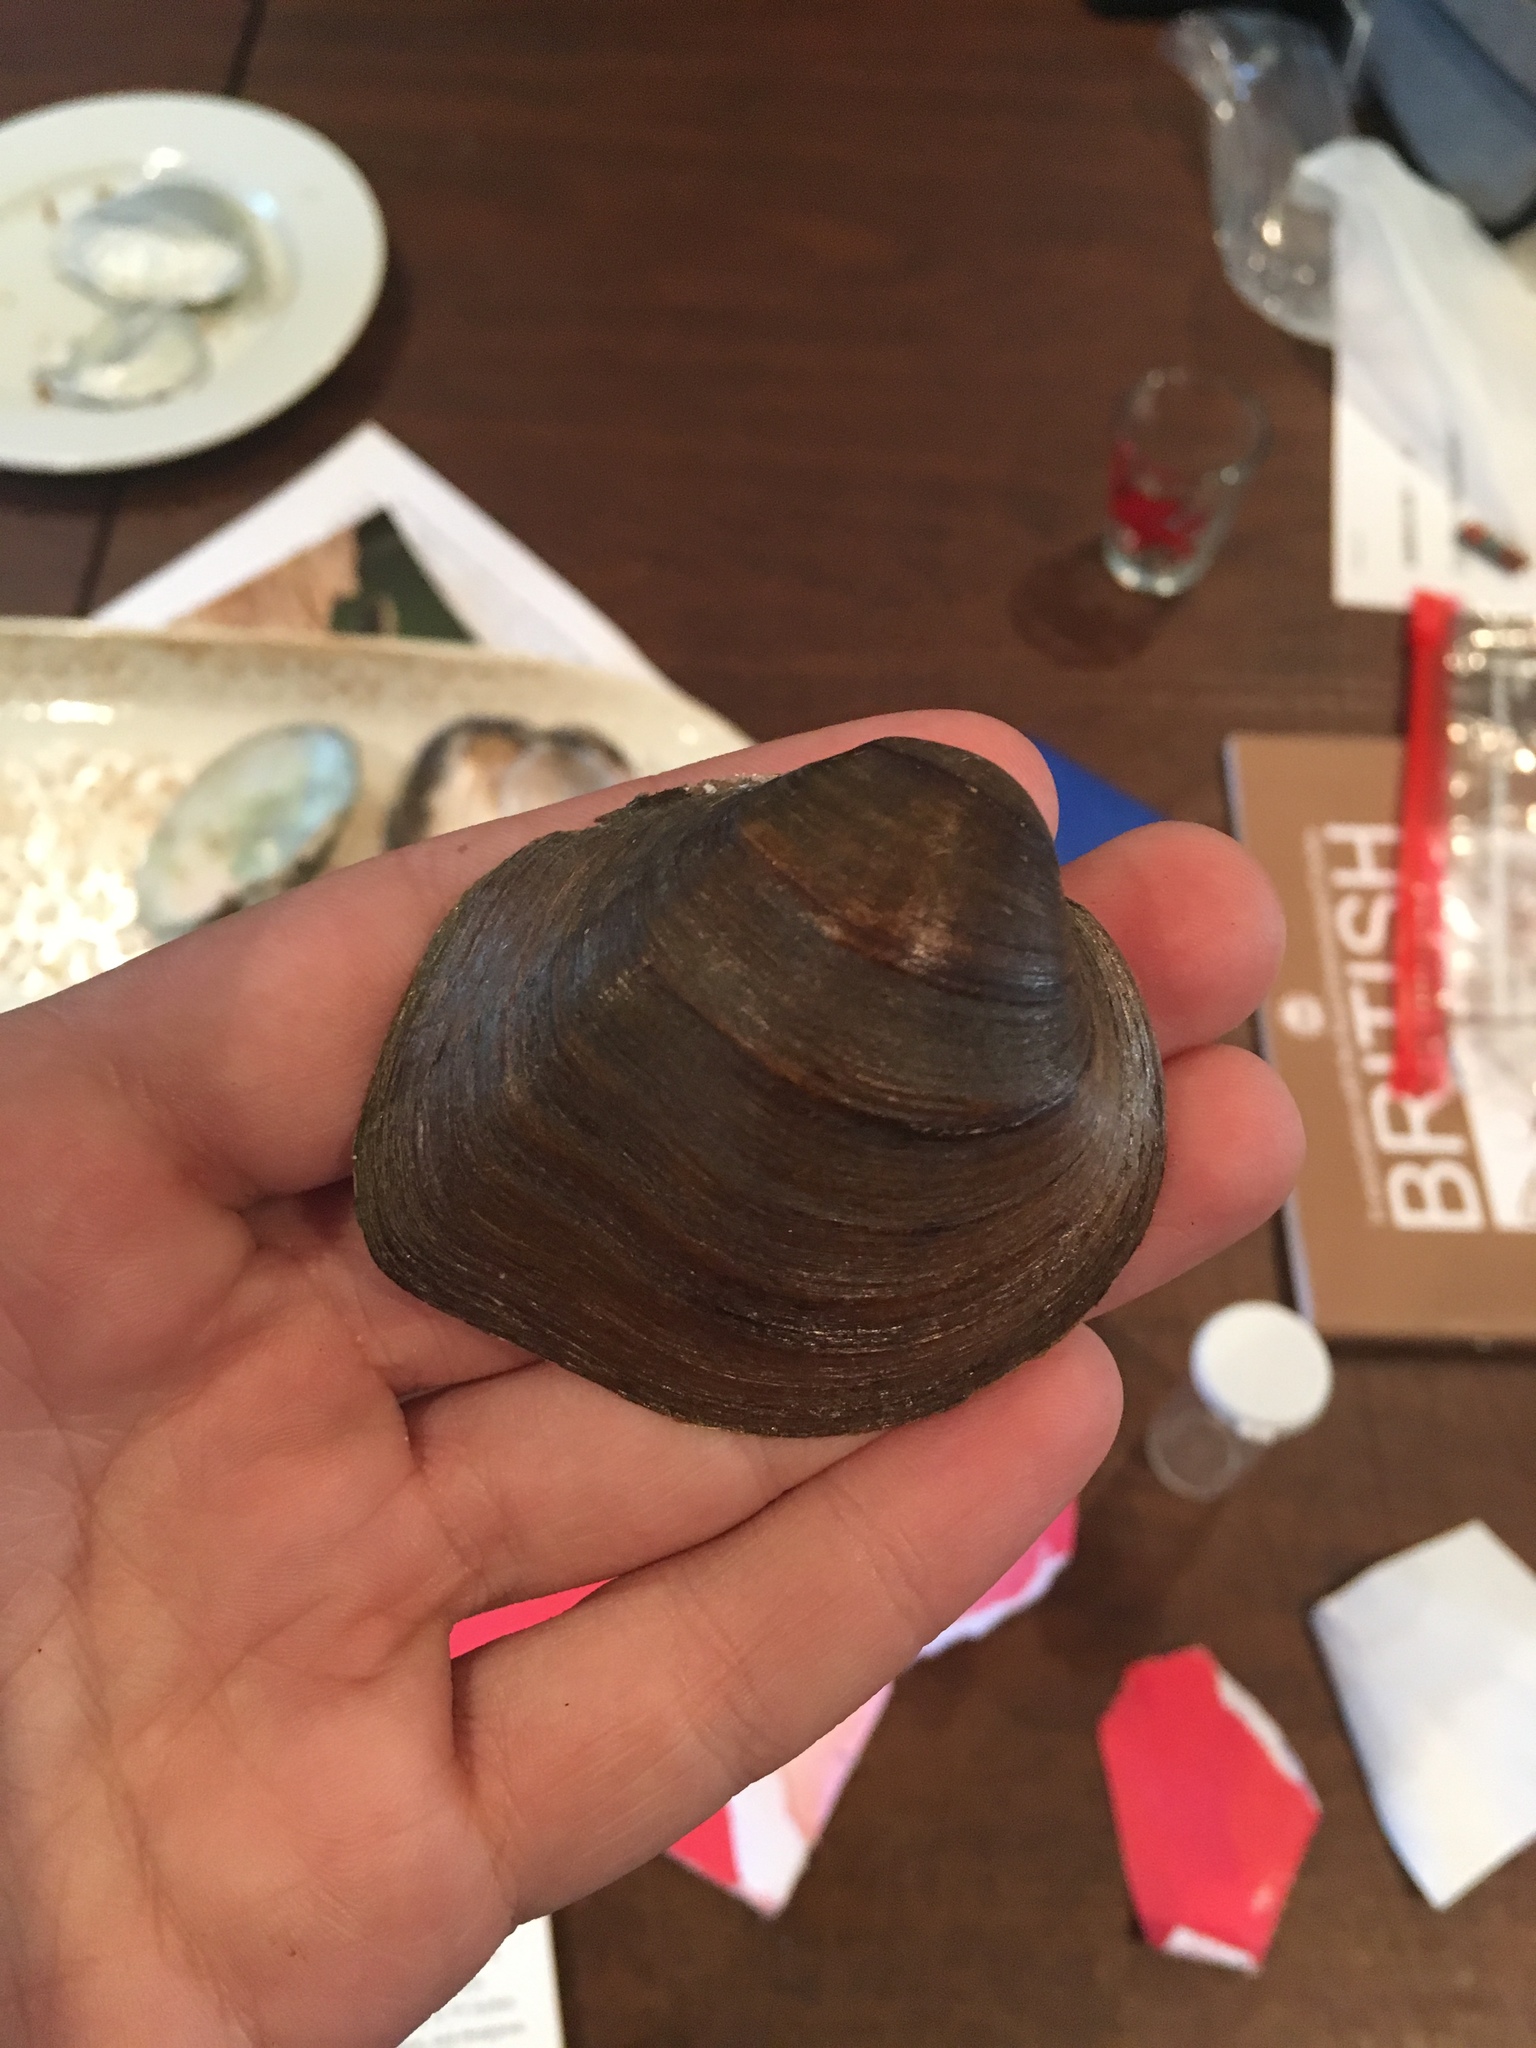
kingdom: Animalia
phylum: Mollusca
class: Bivalvia
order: Unionida
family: Unionidae
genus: Fusconaia
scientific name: Fusconaia flava
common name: Wabash pigtoe
